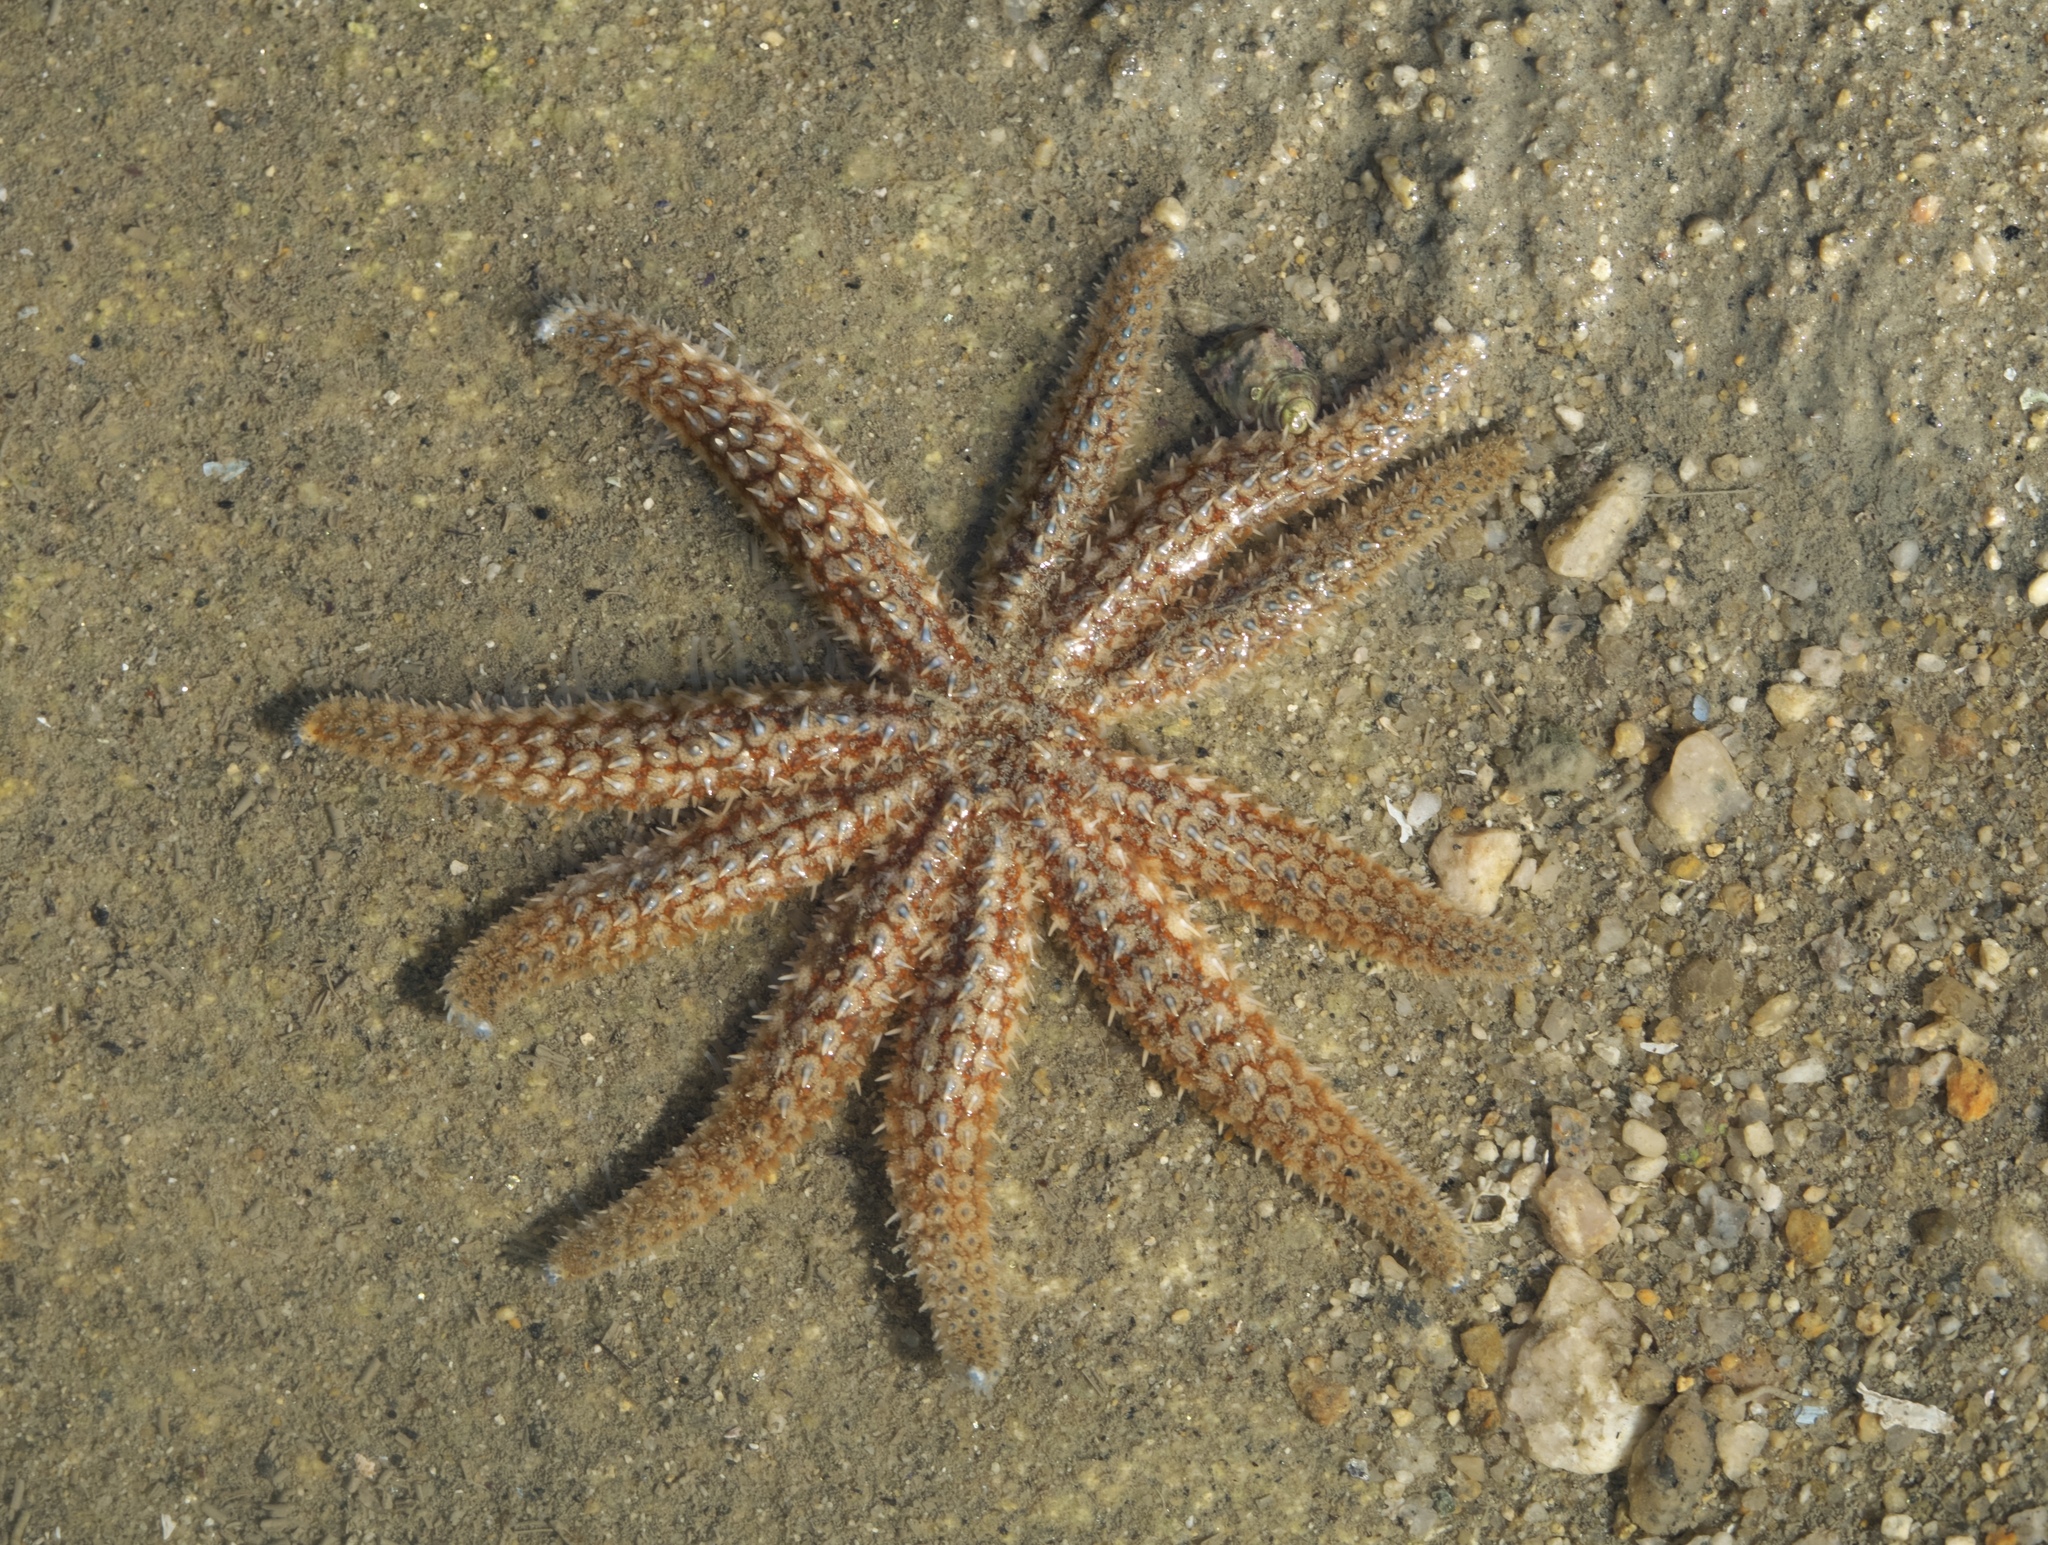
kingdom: Animalia
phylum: Echinodermata
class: Asteroidea
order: Forcipulatida
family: Asteriidae
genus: Coscinasterias
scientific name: Coscinasterias muricata
